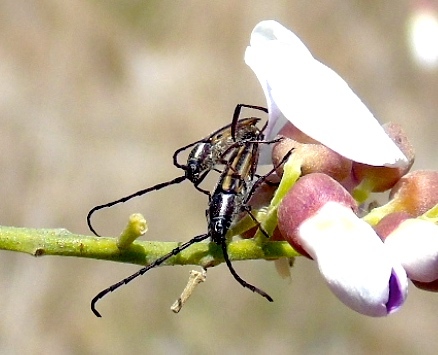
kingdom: Animalia
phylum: Arthropoda
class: Insecta
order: Coleoptera
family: Cerambycidae
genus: Sphaenothecus
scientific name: Sphaenothecus
